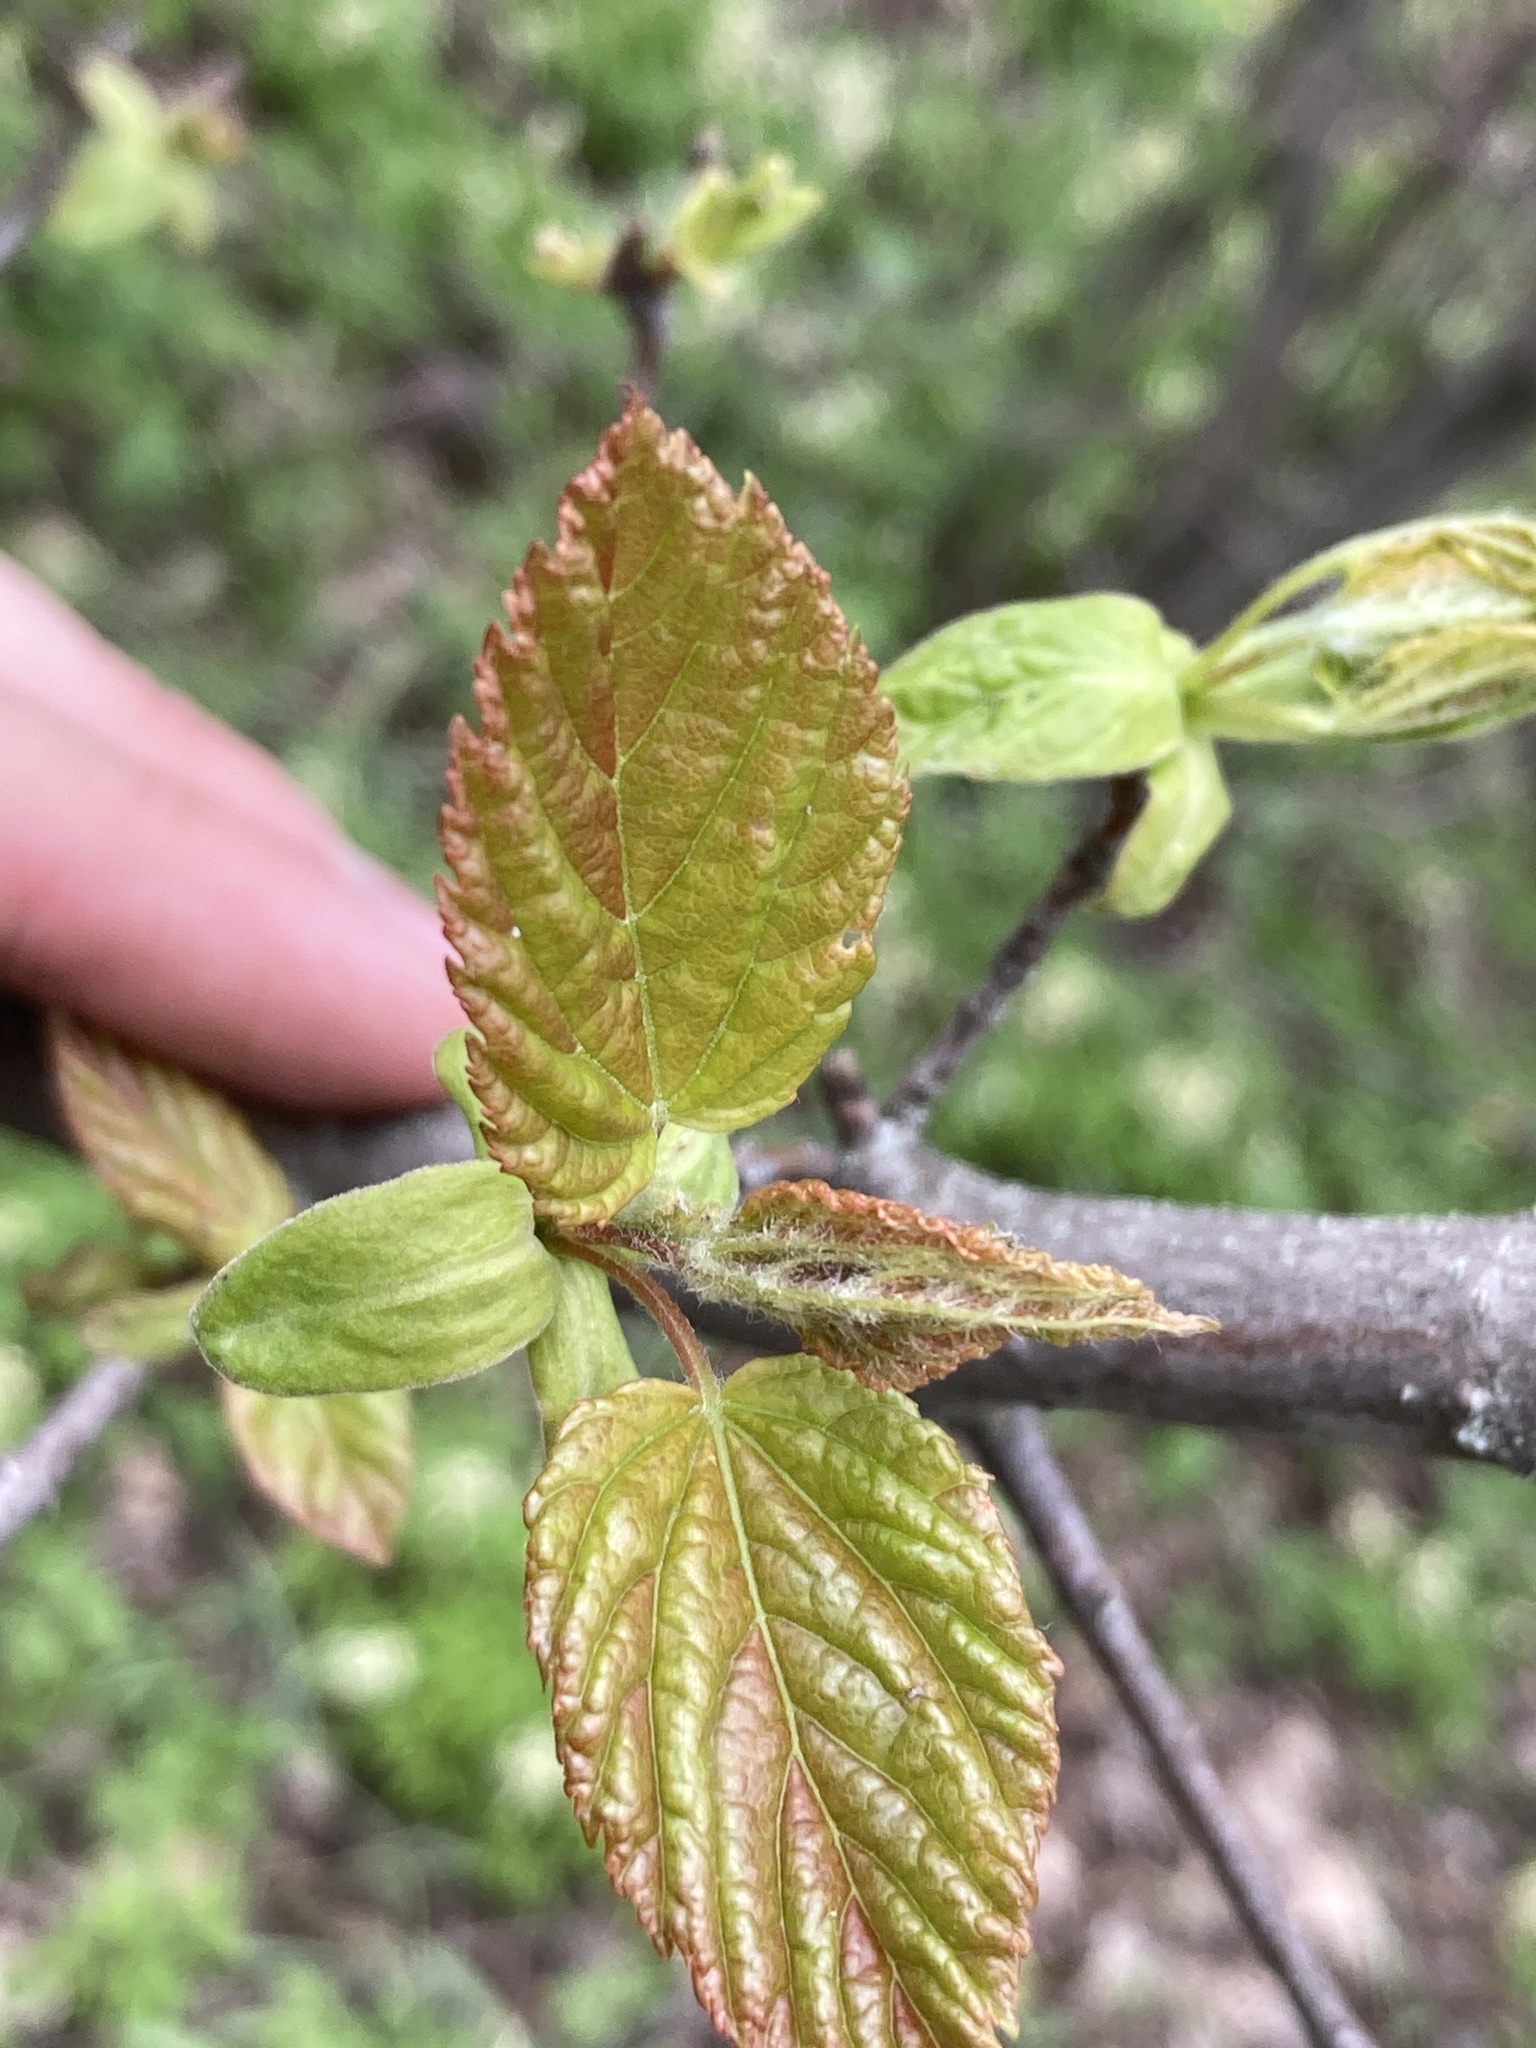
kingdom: Plantae
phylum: Tracheophyta
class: Magnoliopsida
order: Sapindales
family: Sapindaceae
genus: Acer
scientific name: Acer tataricum
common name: Tartar maple
